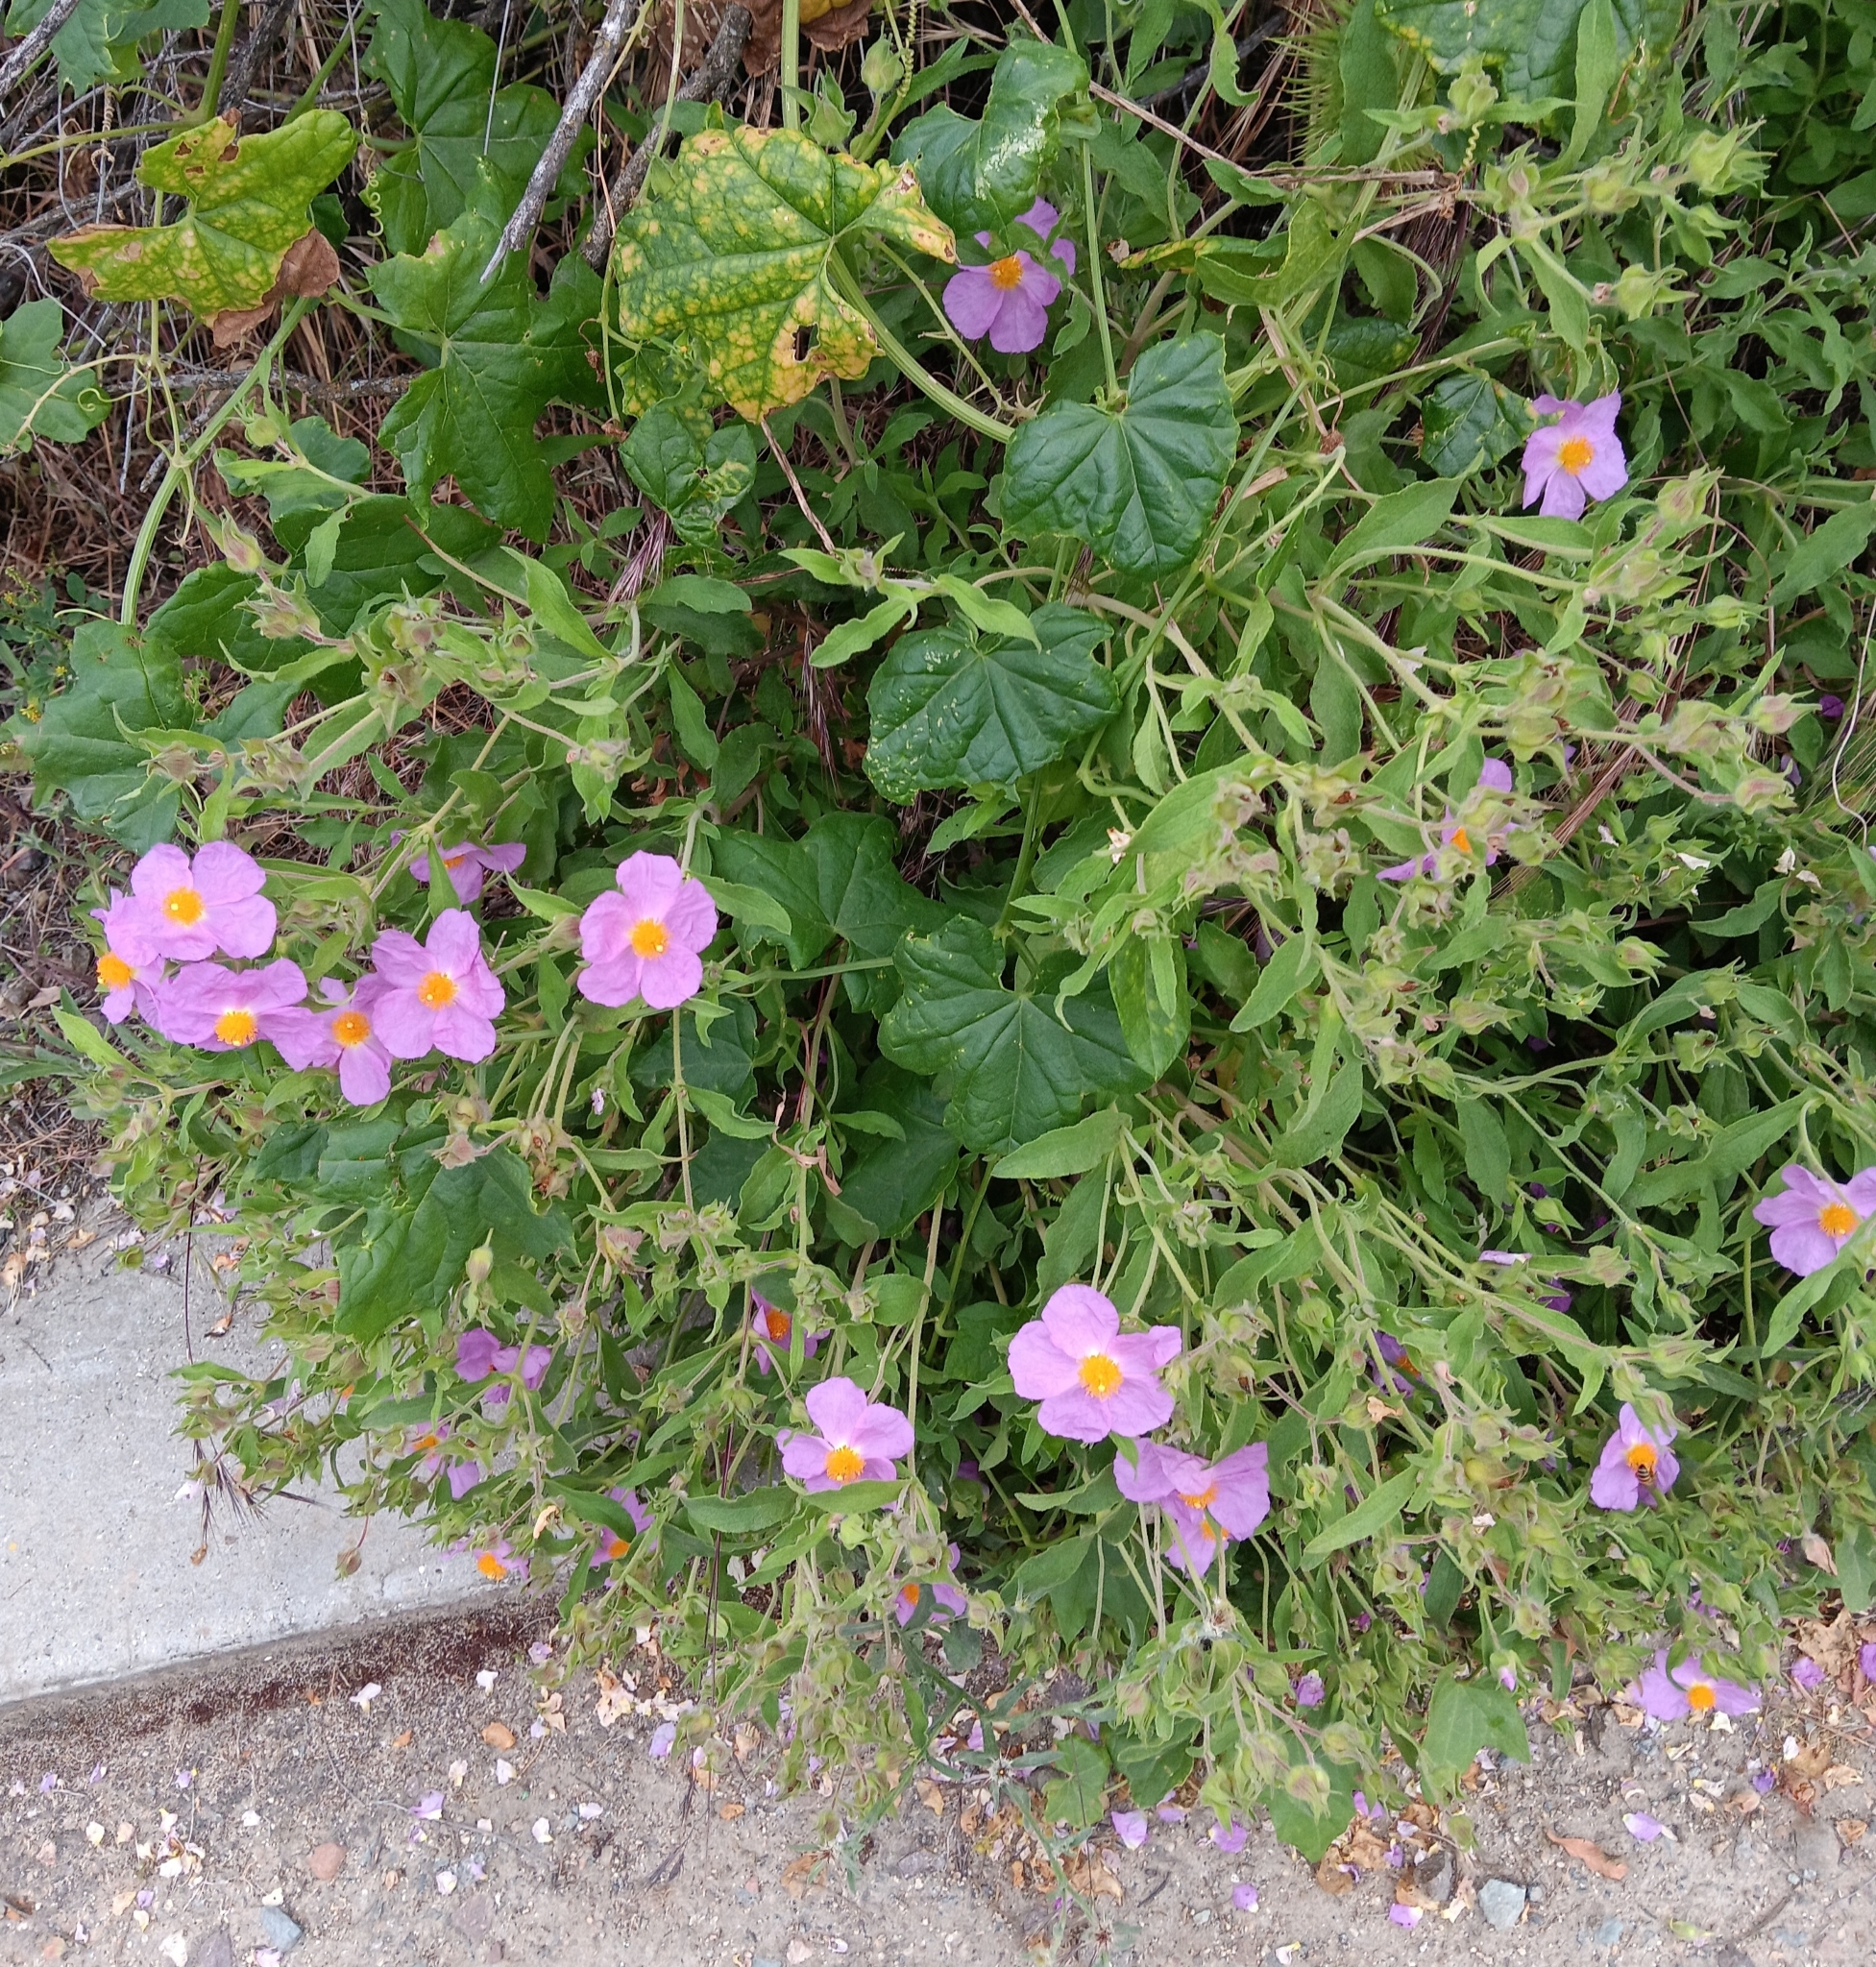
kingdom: Plantae
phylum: Tracheophyta
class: Magnoliopsida
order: Malvales
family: Cistaceae
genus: Cistus
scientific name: Cistus creticus
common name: Cretan rockrose
